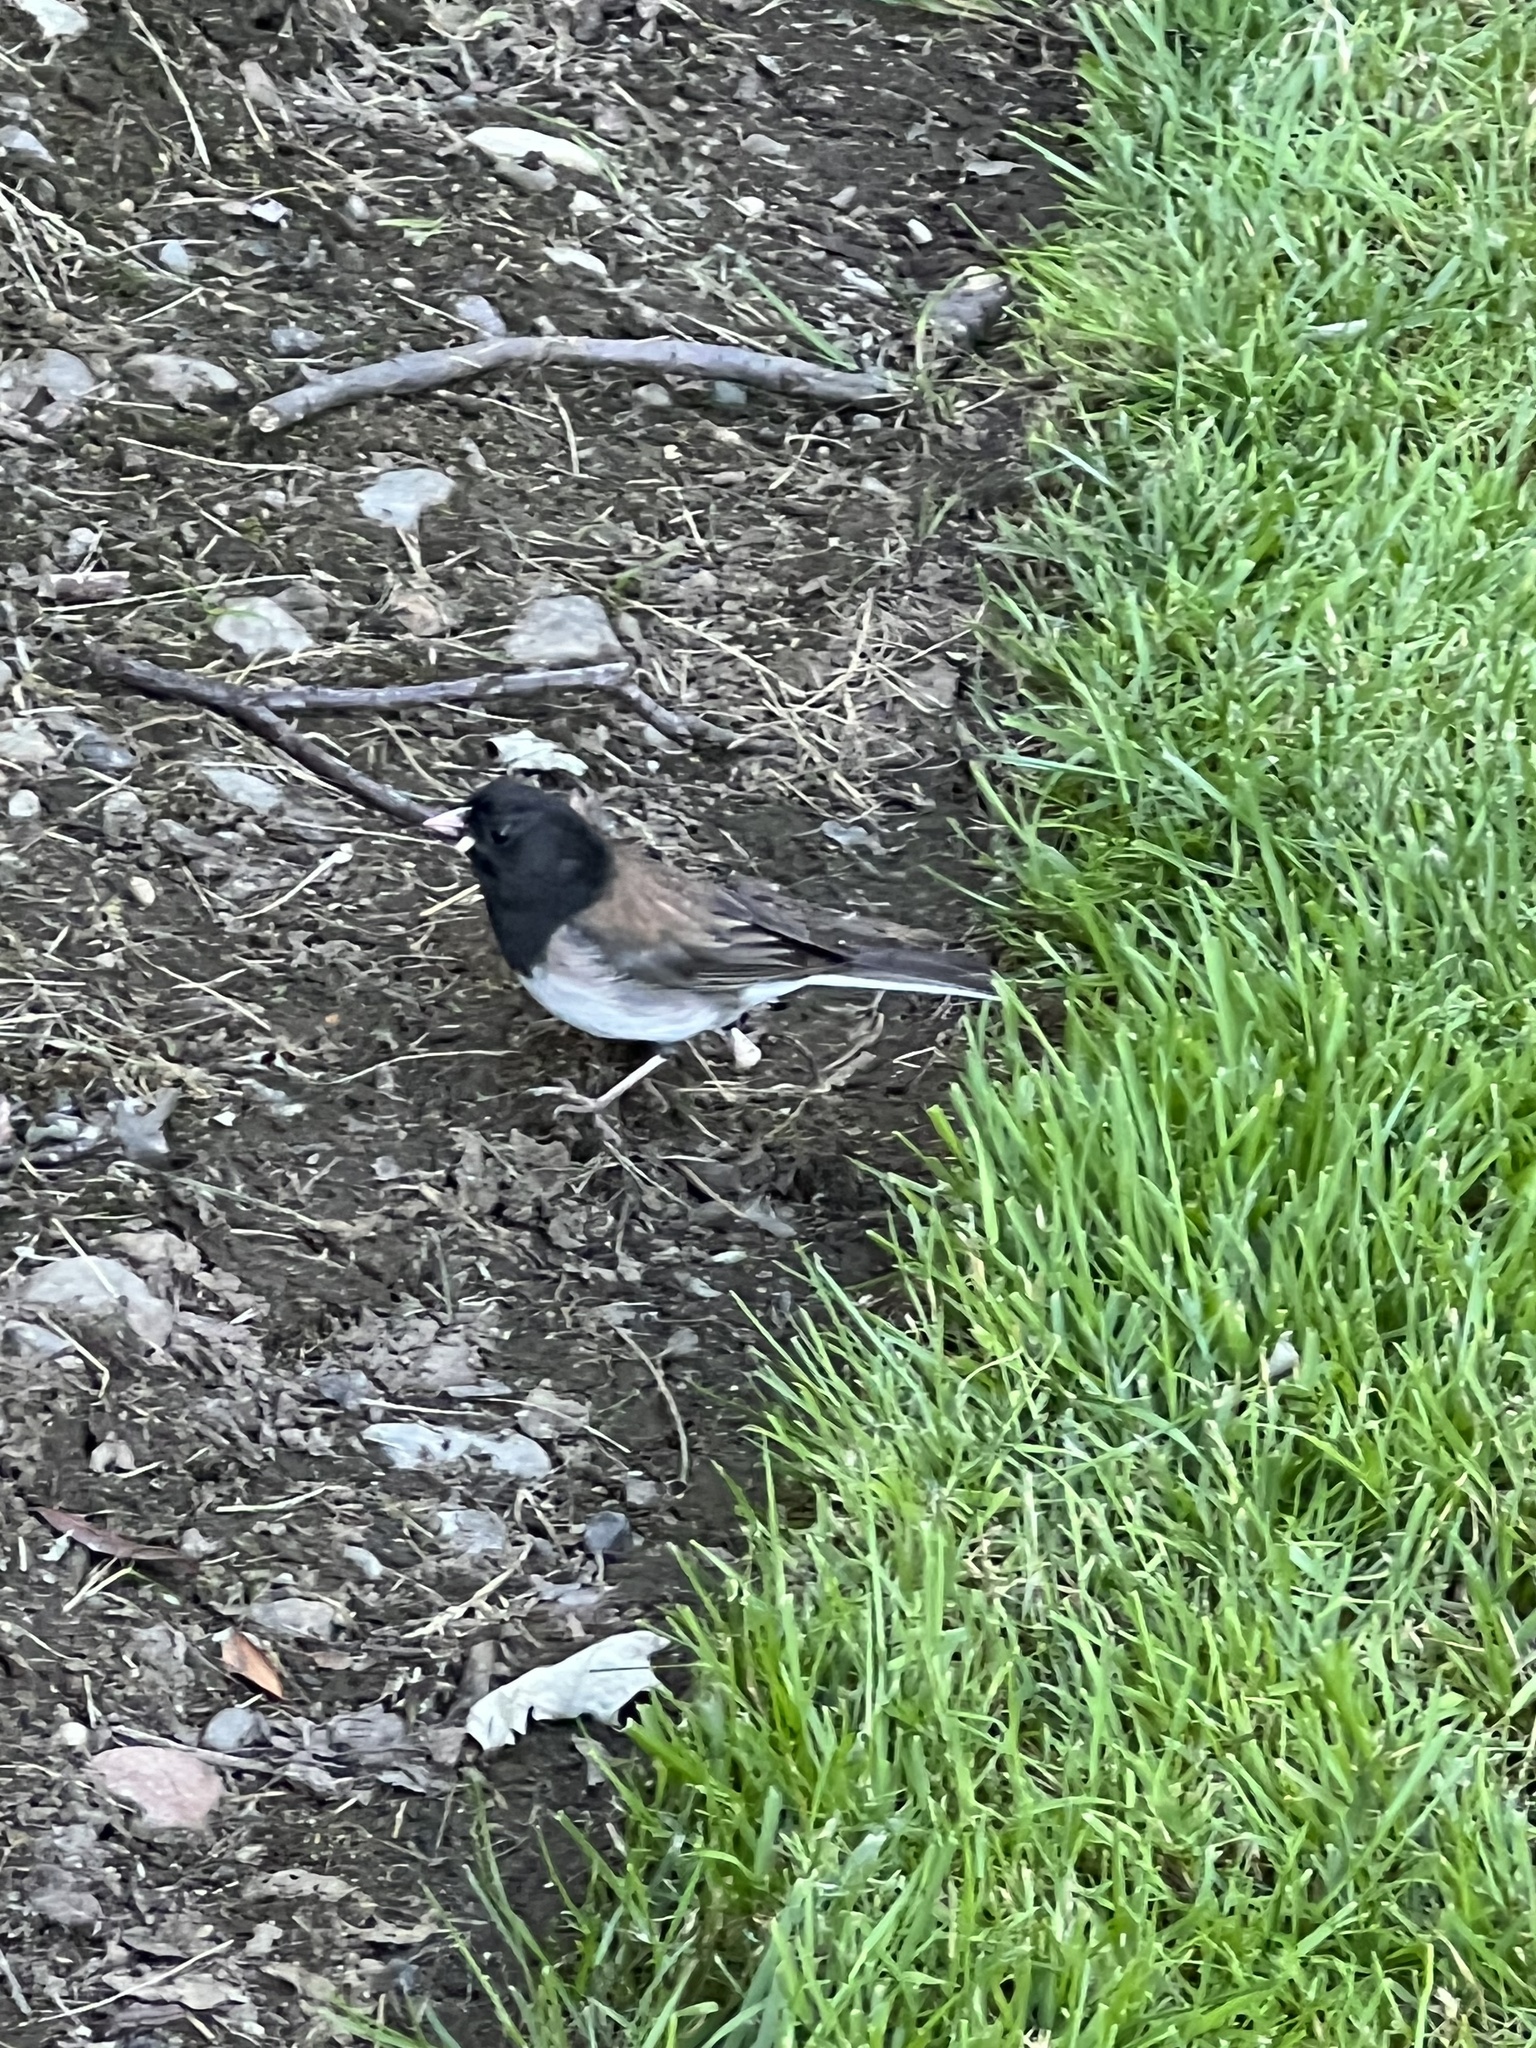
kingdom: Animalia
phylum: Chordata
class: Aves
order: Passeriformes
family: Passerellidae
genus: Junco
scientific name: Junco hyemalis
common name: Dark-eyed junco
